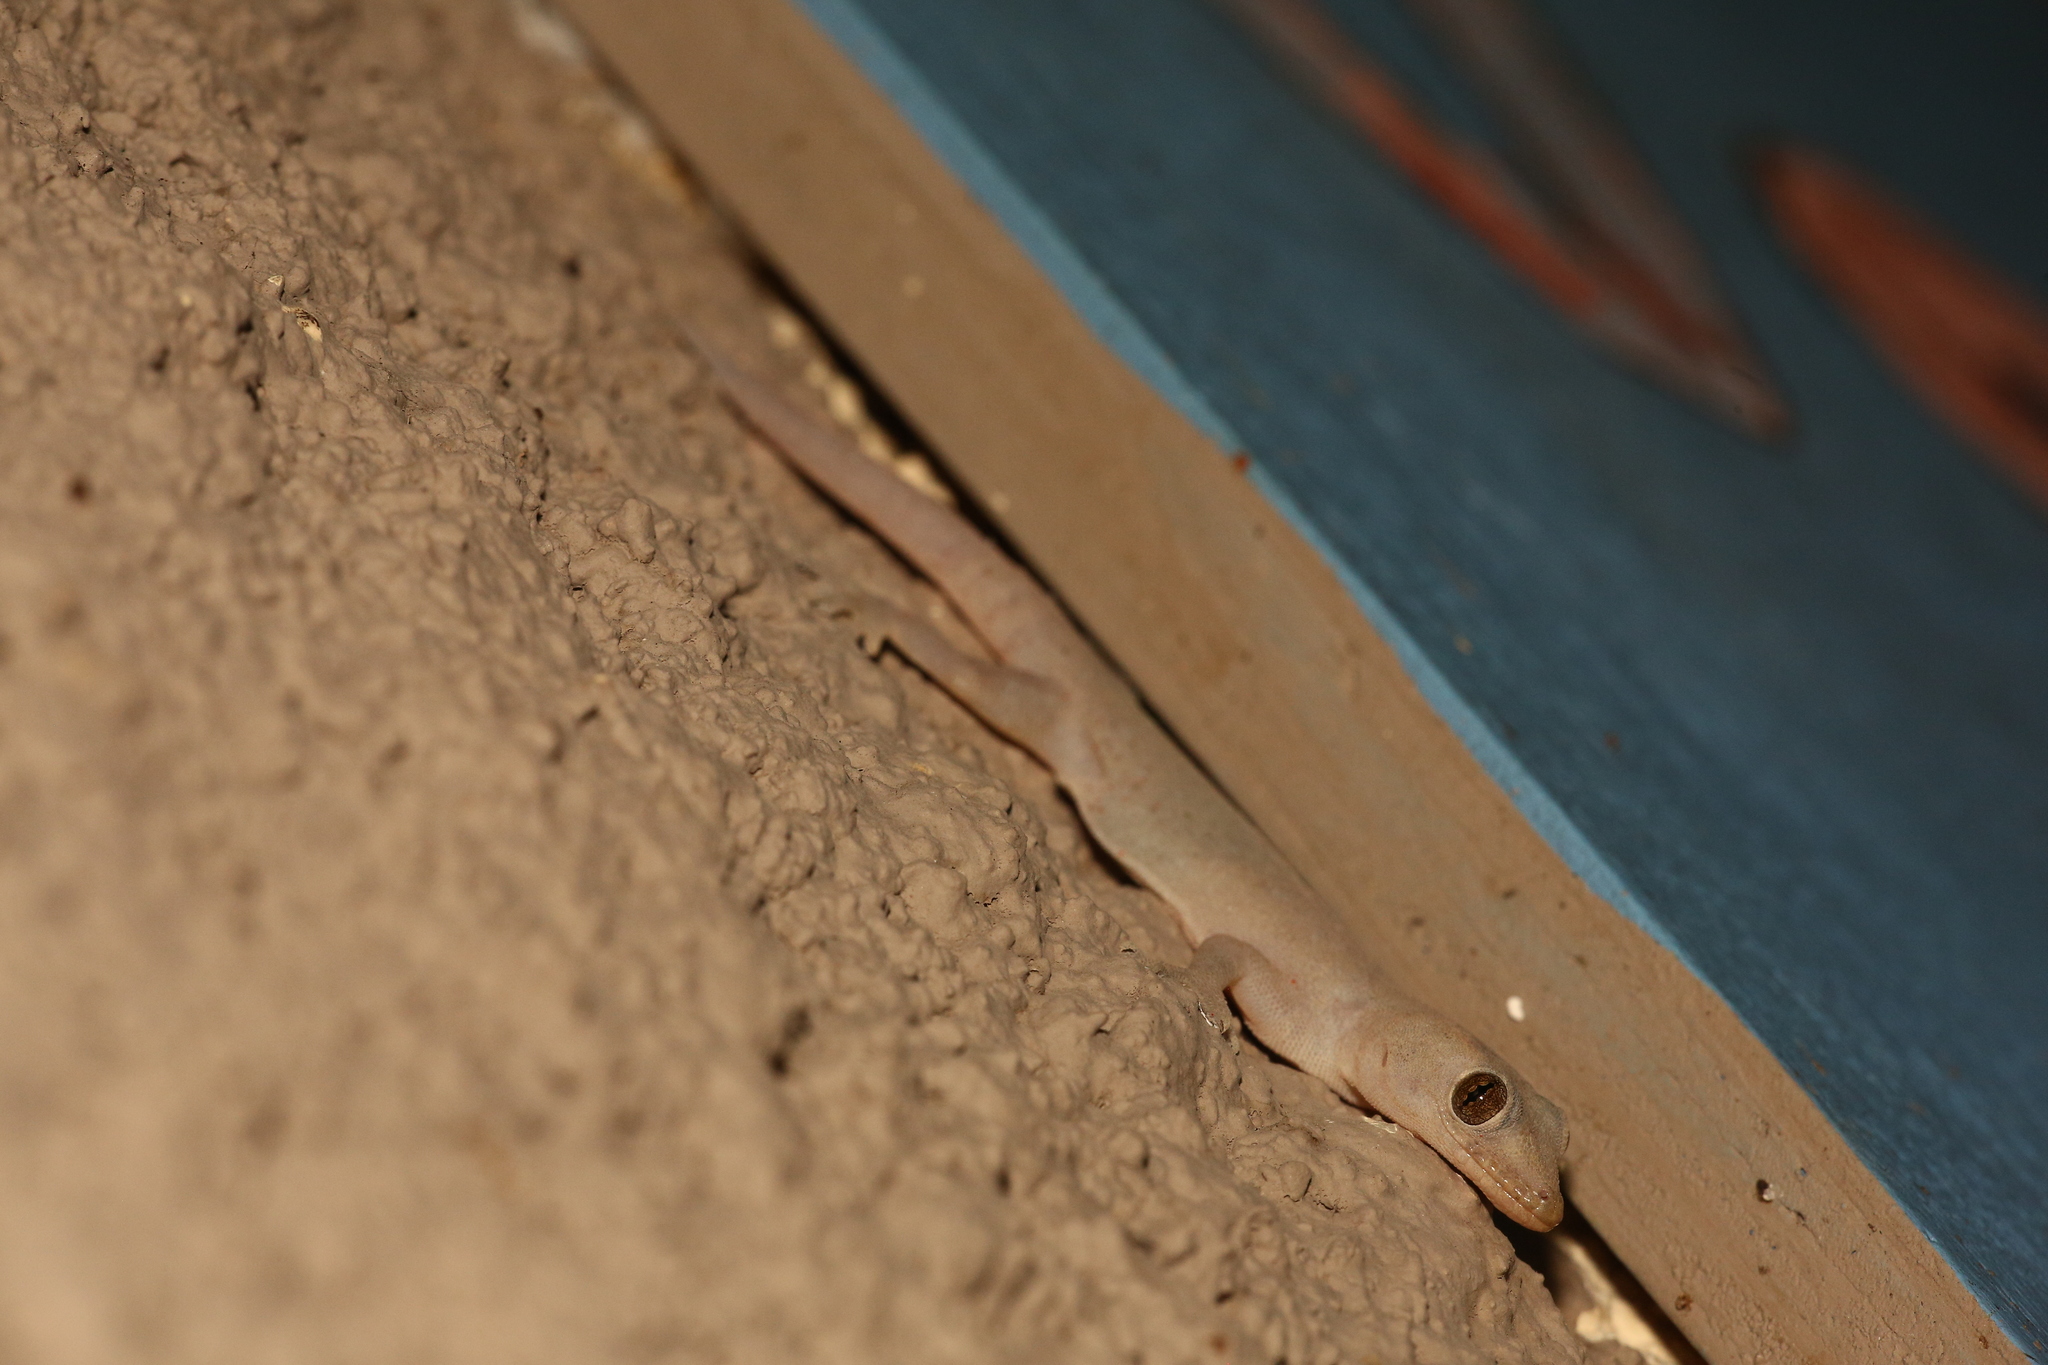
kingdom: Animalia
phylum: Chordata
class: Squamata
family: Gekkonidae
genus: Hemidactylus
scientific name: Hemidactylus frenatus
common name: Common house gecko
